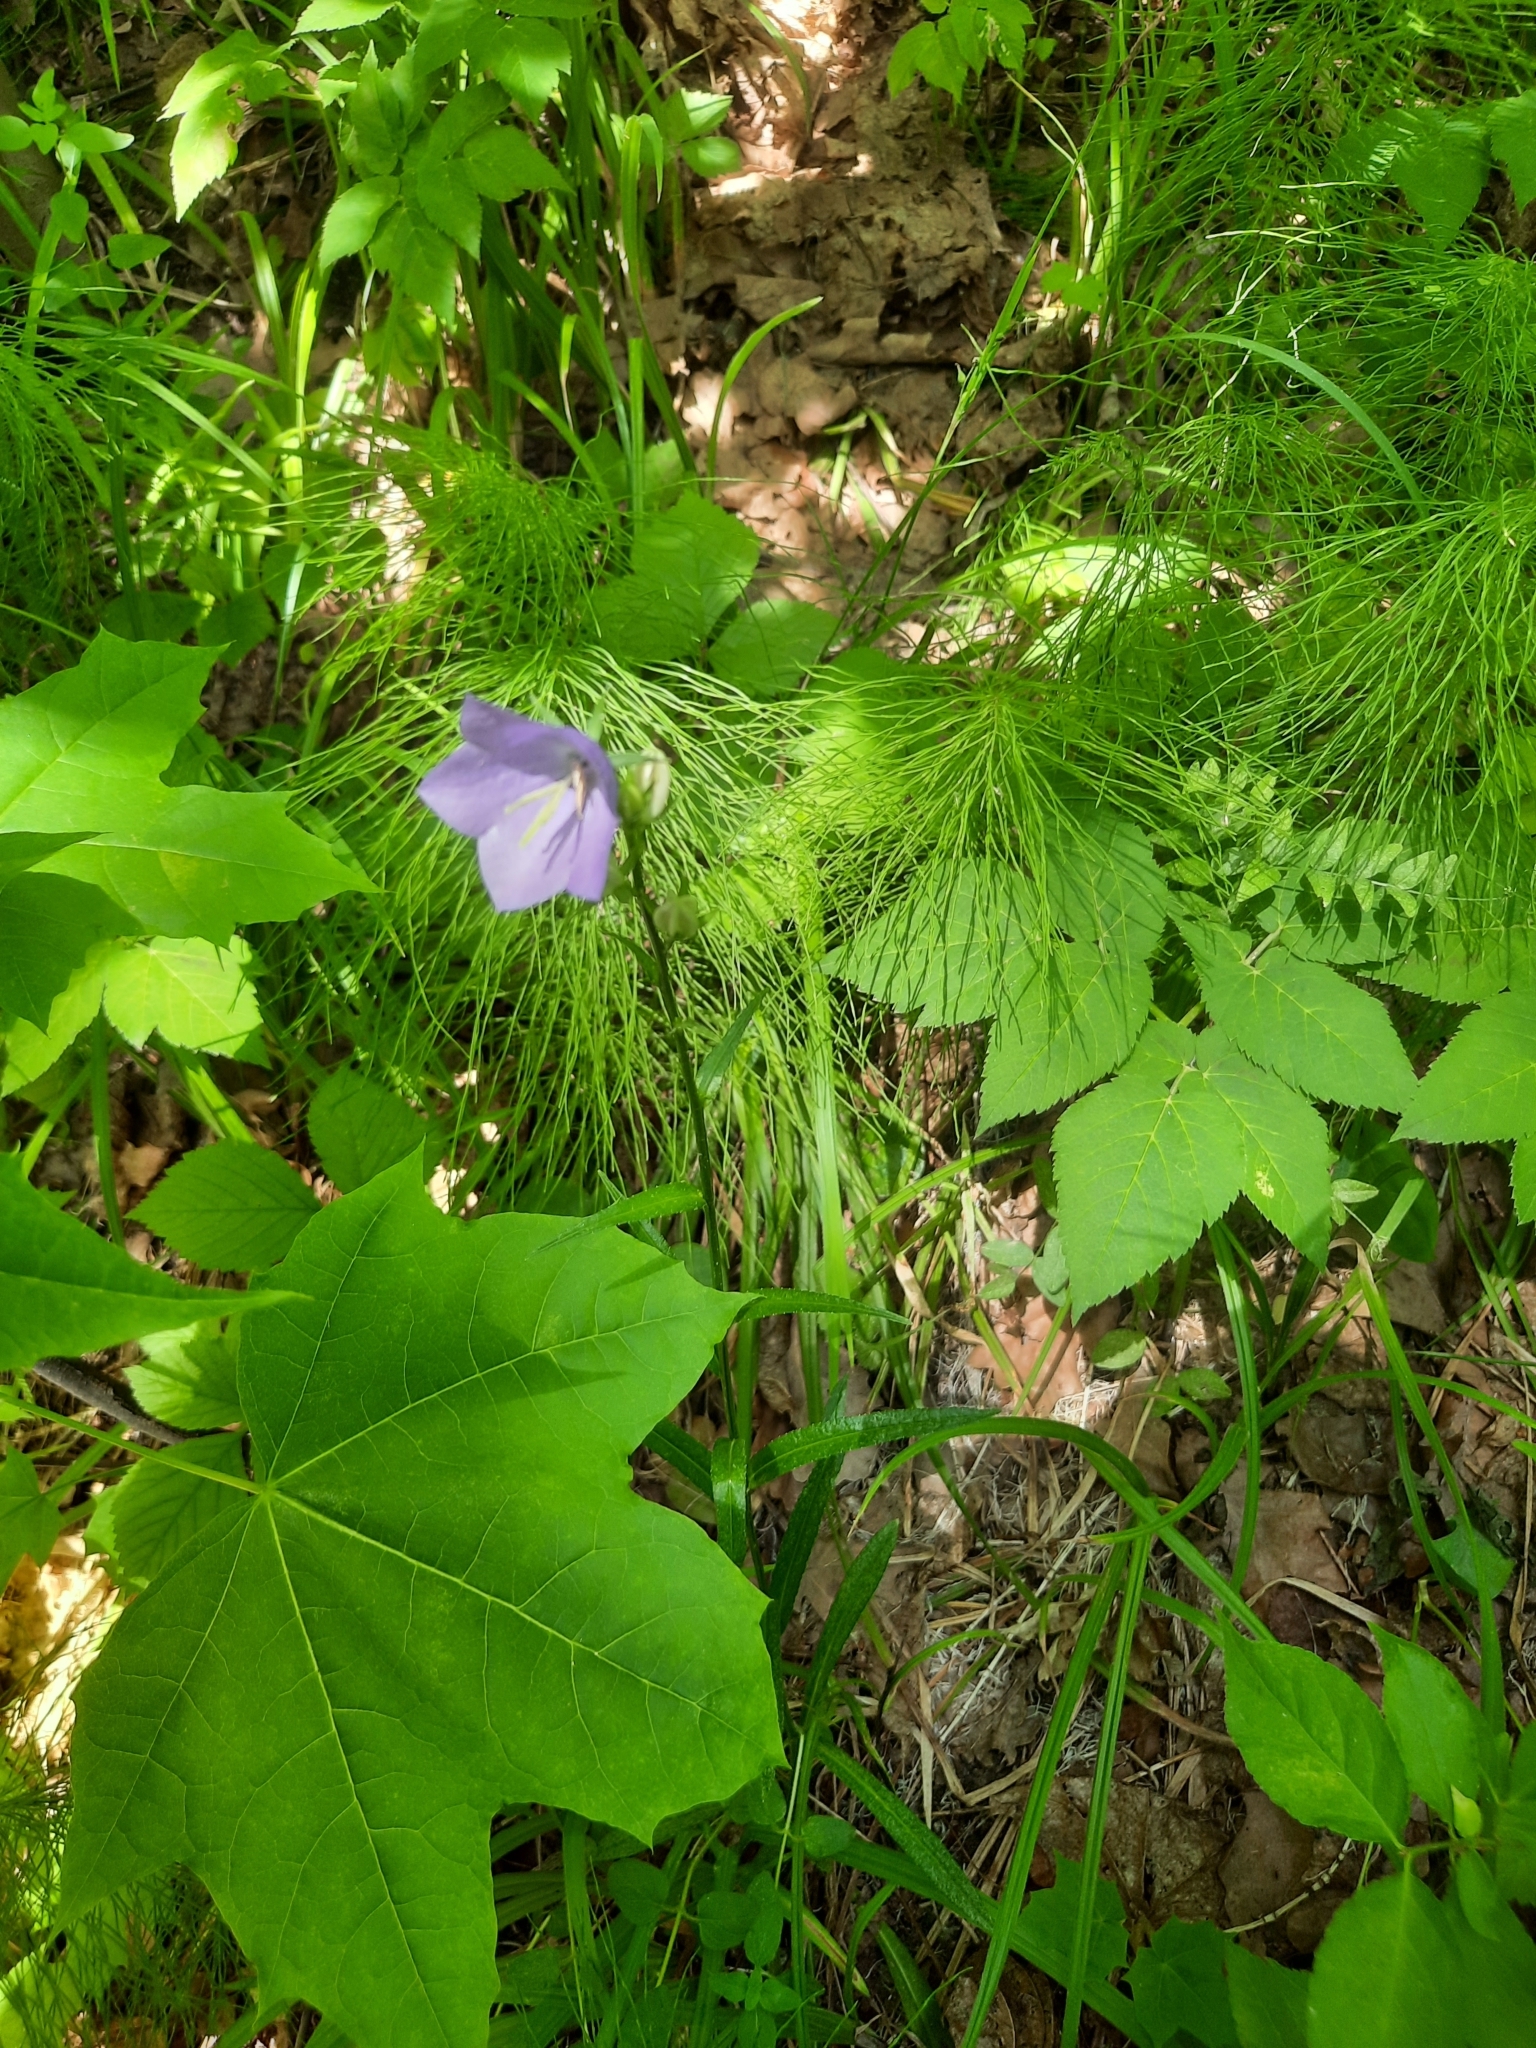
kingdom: Plantae
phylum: Tracheophyta
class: Magnoliopsida
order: Asterales
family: Campanulaceae
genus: Campanula
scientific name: Campanula persicifolia
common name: Peach-leaved bellflower
